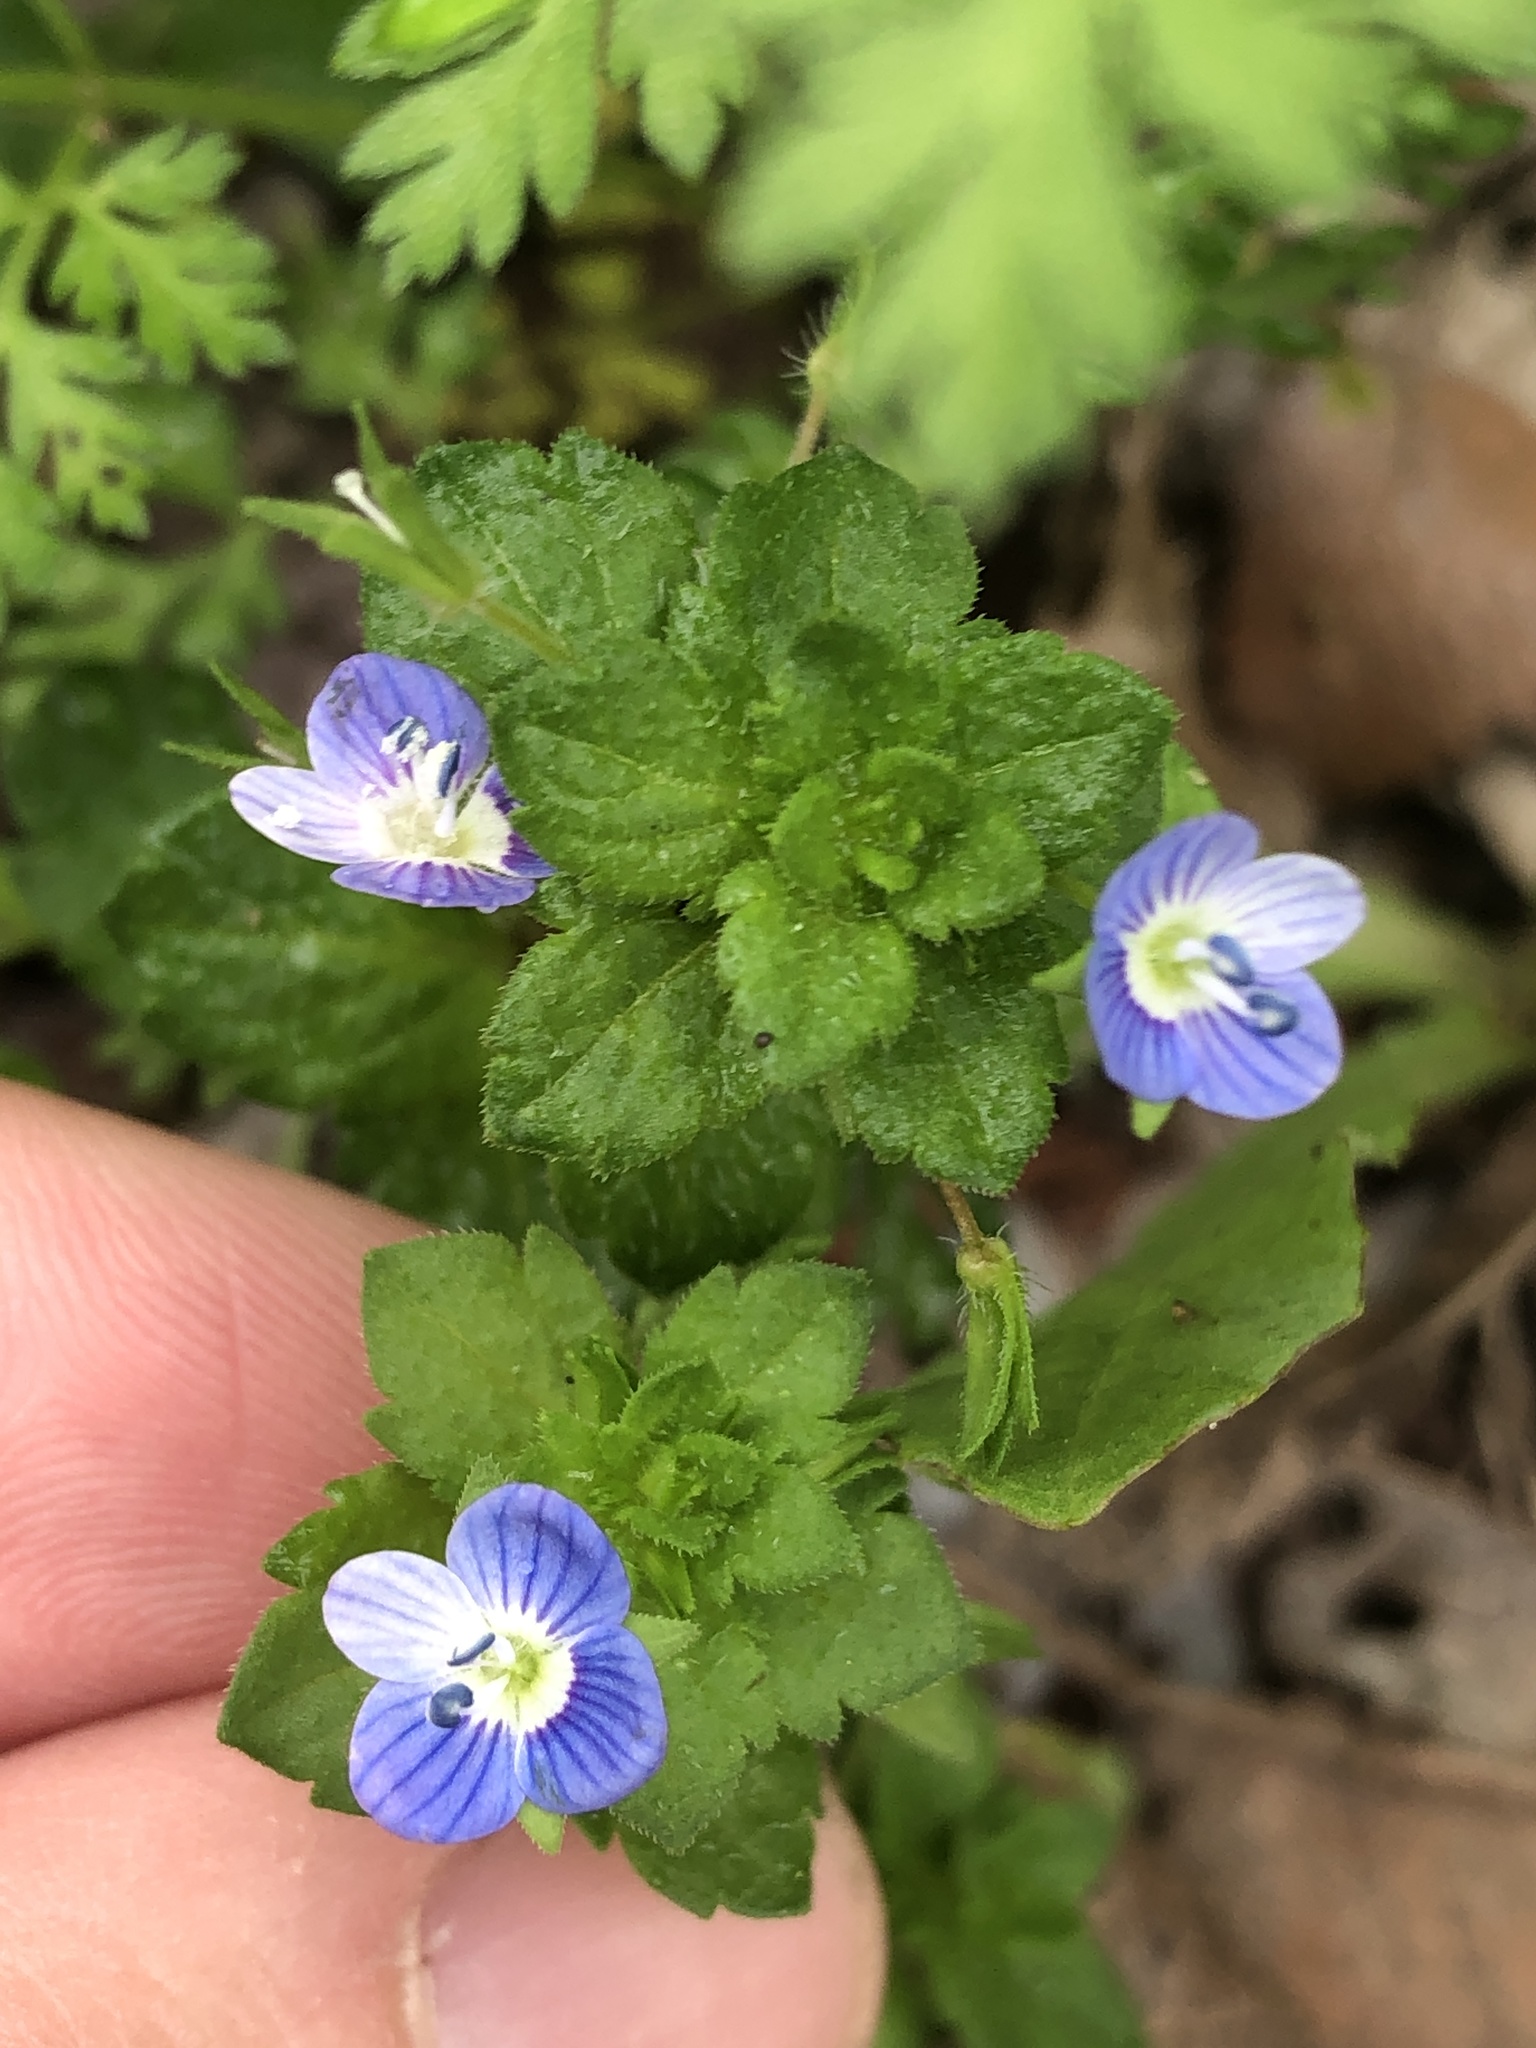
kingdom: Plantae
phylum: Tracheophyta
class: Magnoliopsida
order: Lamiales
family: Plantaginaceae
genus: Veronica
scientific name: Veronica persica
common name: Common field-speedwell
